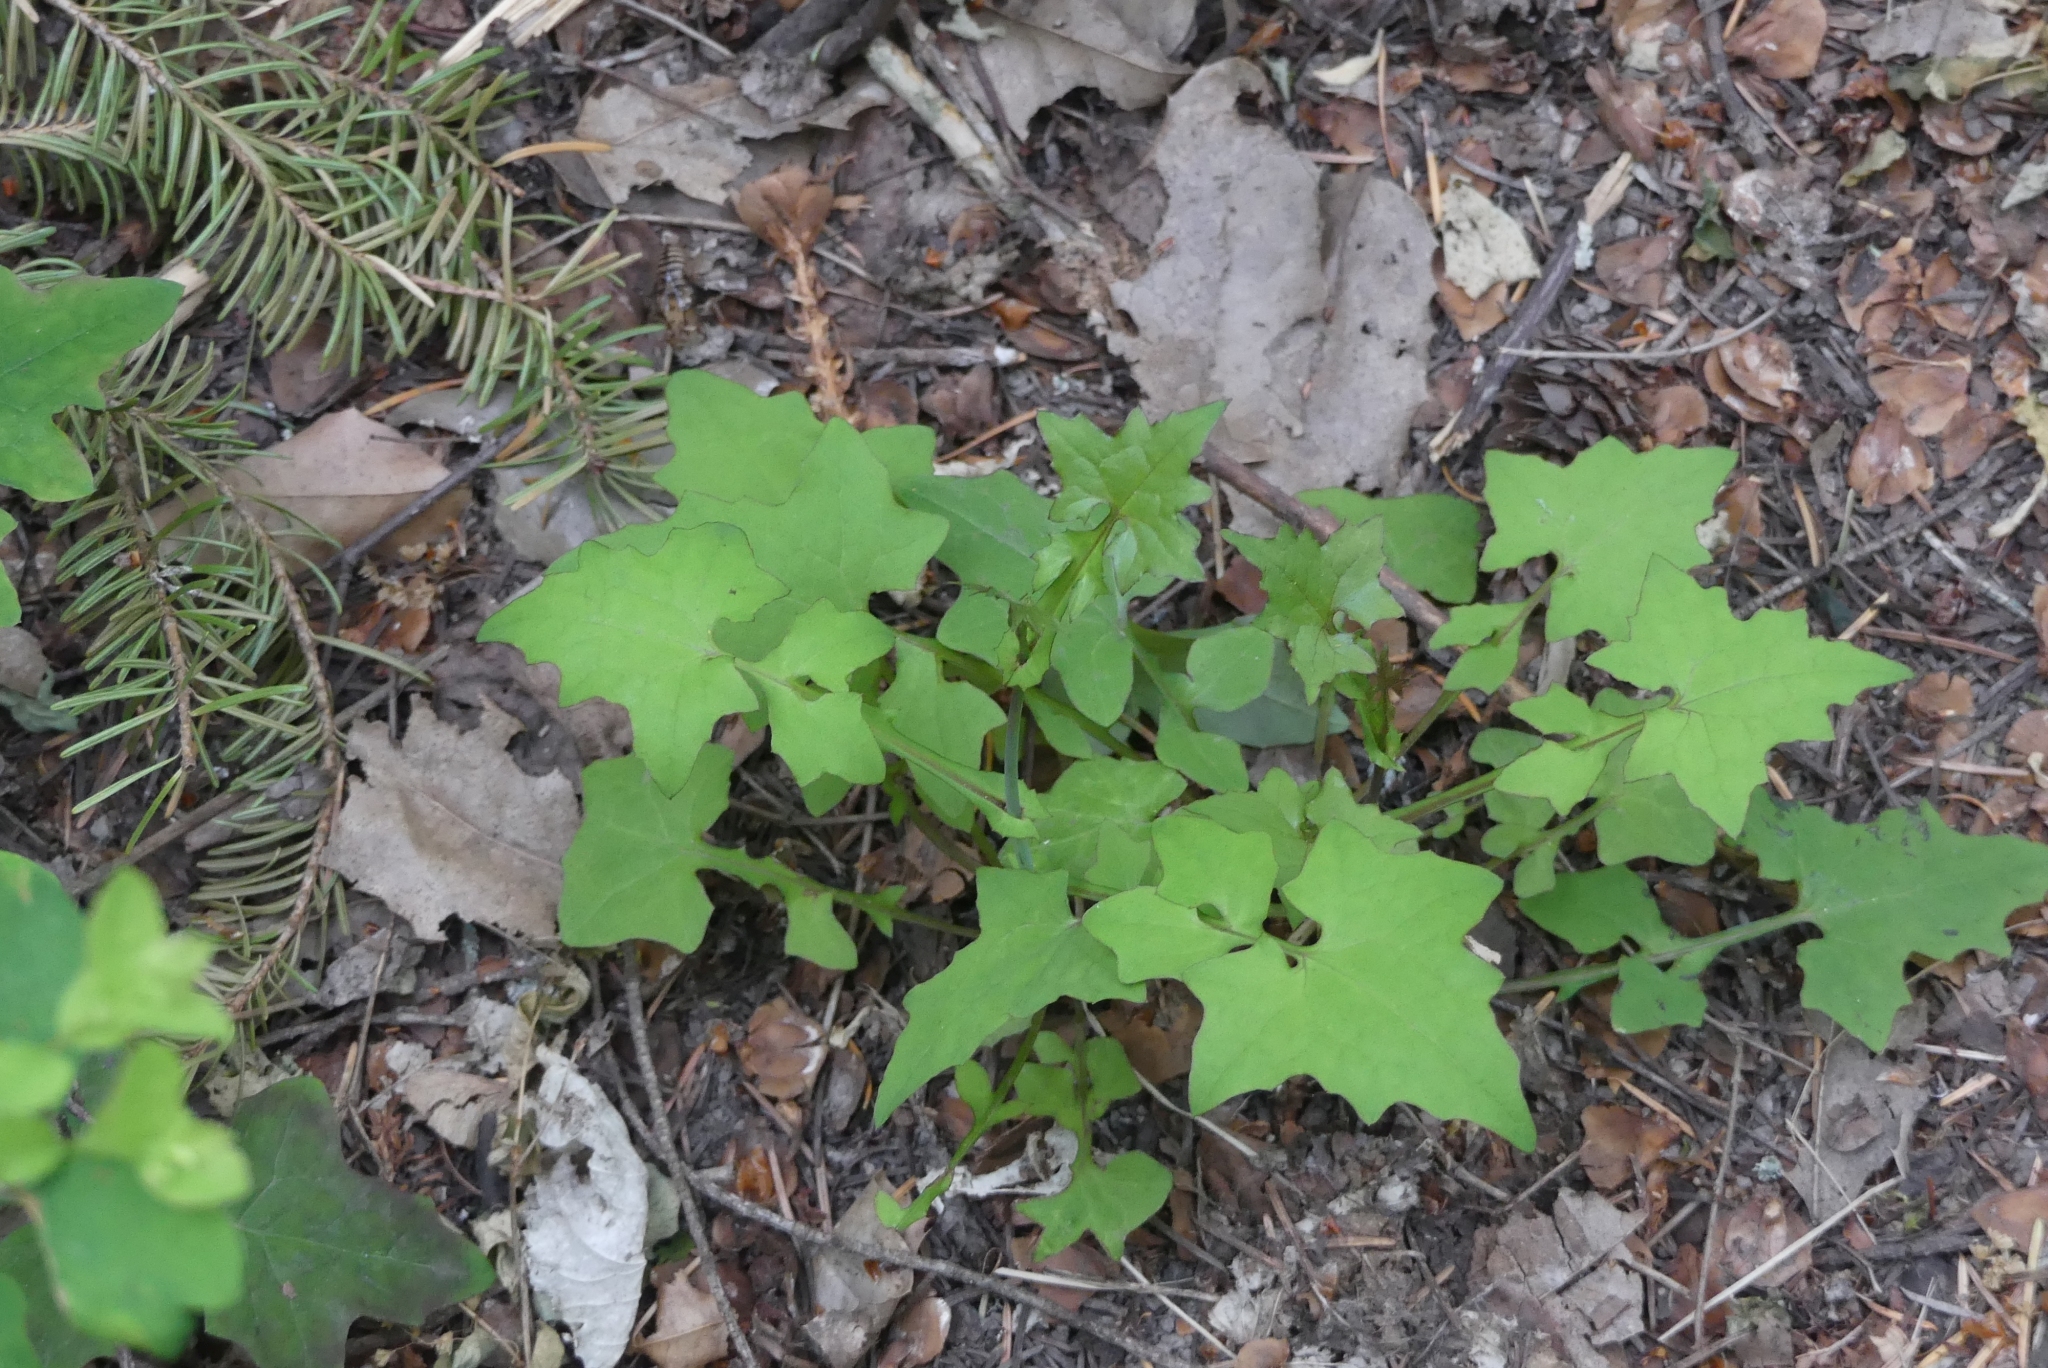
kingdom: Plantae
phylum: Tracheophyta
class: Magnoliopsida
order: Asterales
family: Asteraceae
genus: Mycelis
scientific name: Mycelis muralis
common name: Wall lettuce
